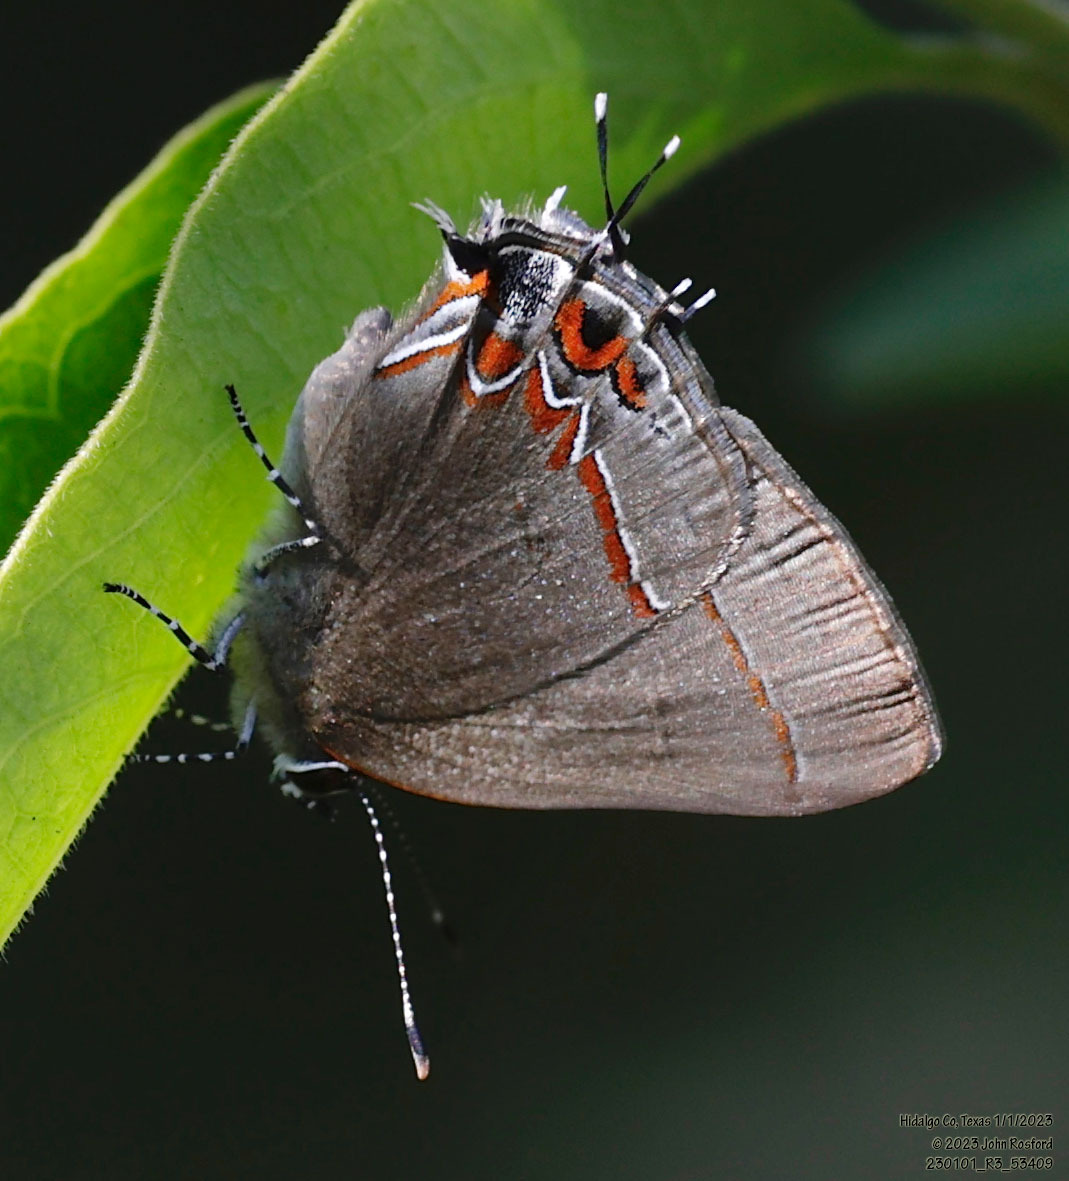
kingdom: Animalia
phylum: Arthropoda
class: Insecta
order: Lepidoptera
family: Lycaenidae
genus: Calycopis
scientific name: Calycopis isobeon
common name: Dusky-blue groundstreak
